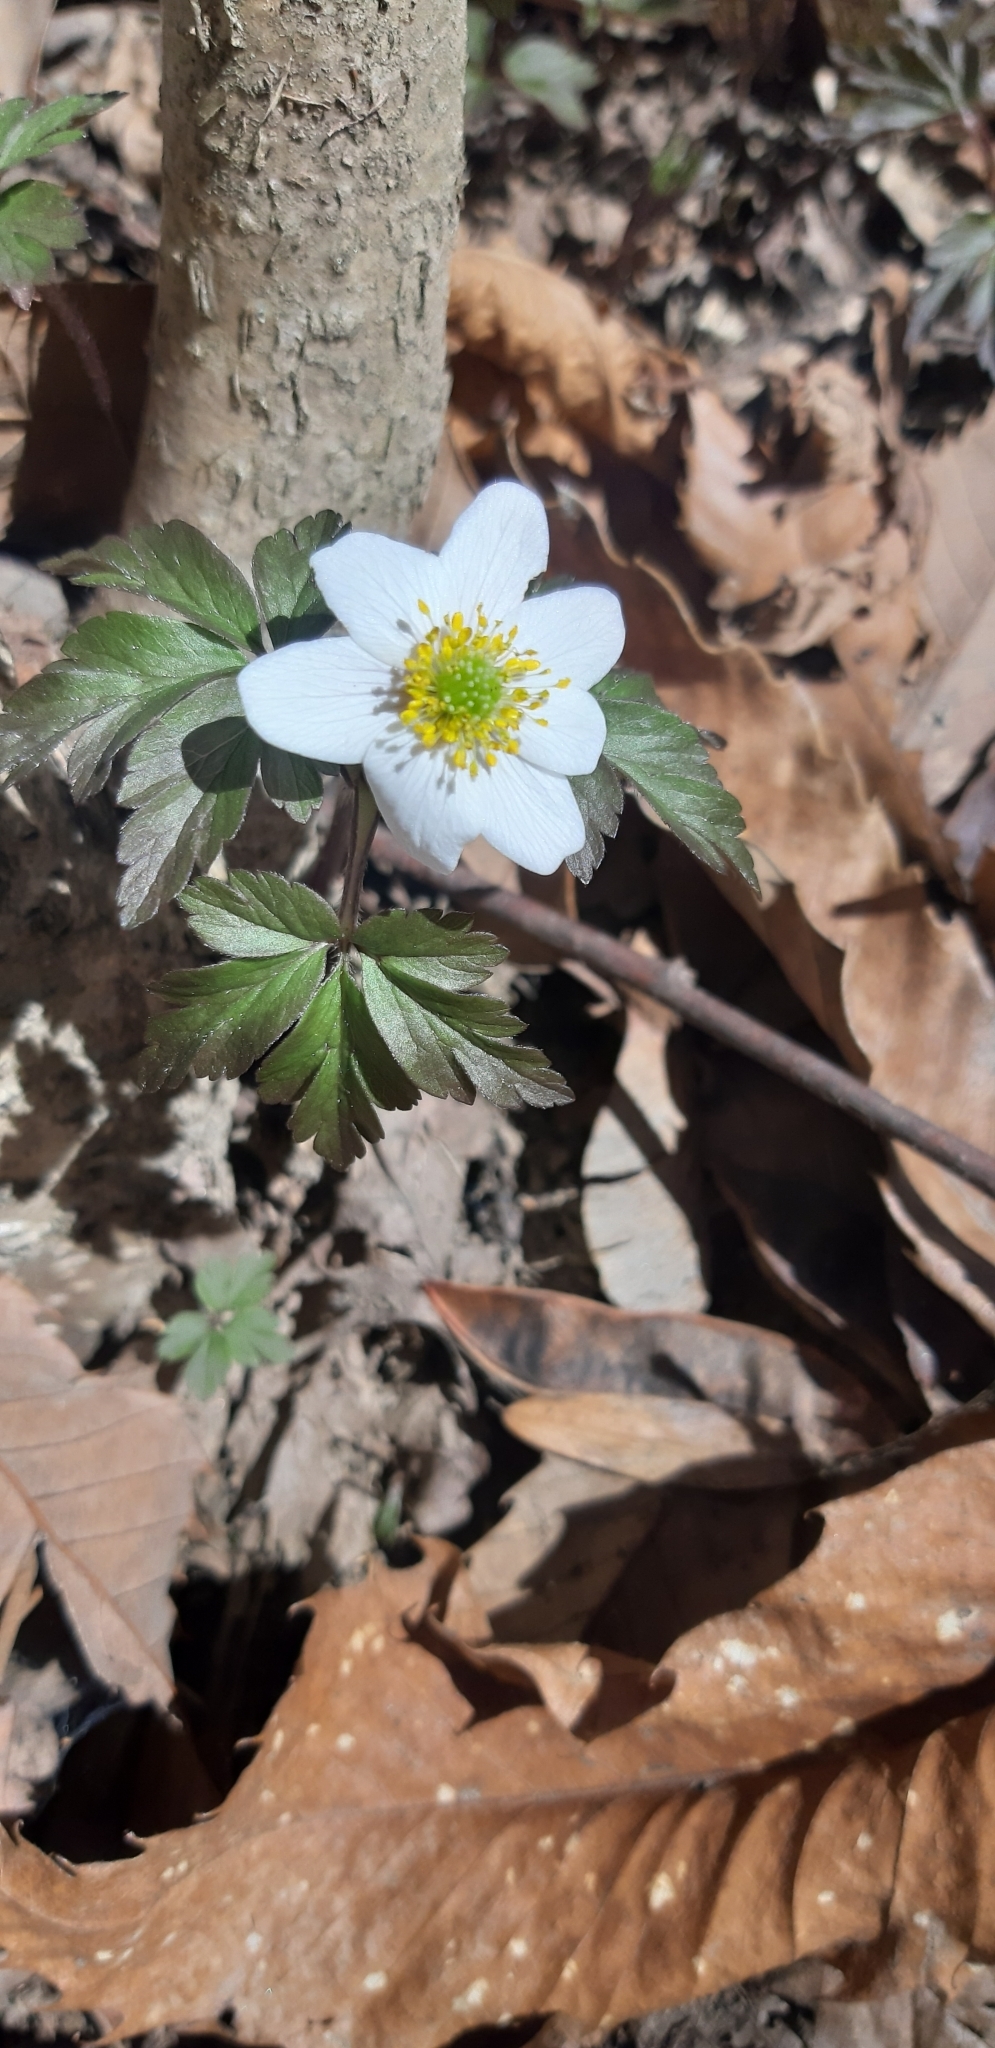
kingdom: Plantae
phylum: Tracheophyta
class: Magnoliopsida
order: Ranunculales
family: Ranunculaceae
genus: Anemone
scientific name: Anemone nemorosa
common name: Wood anemone
